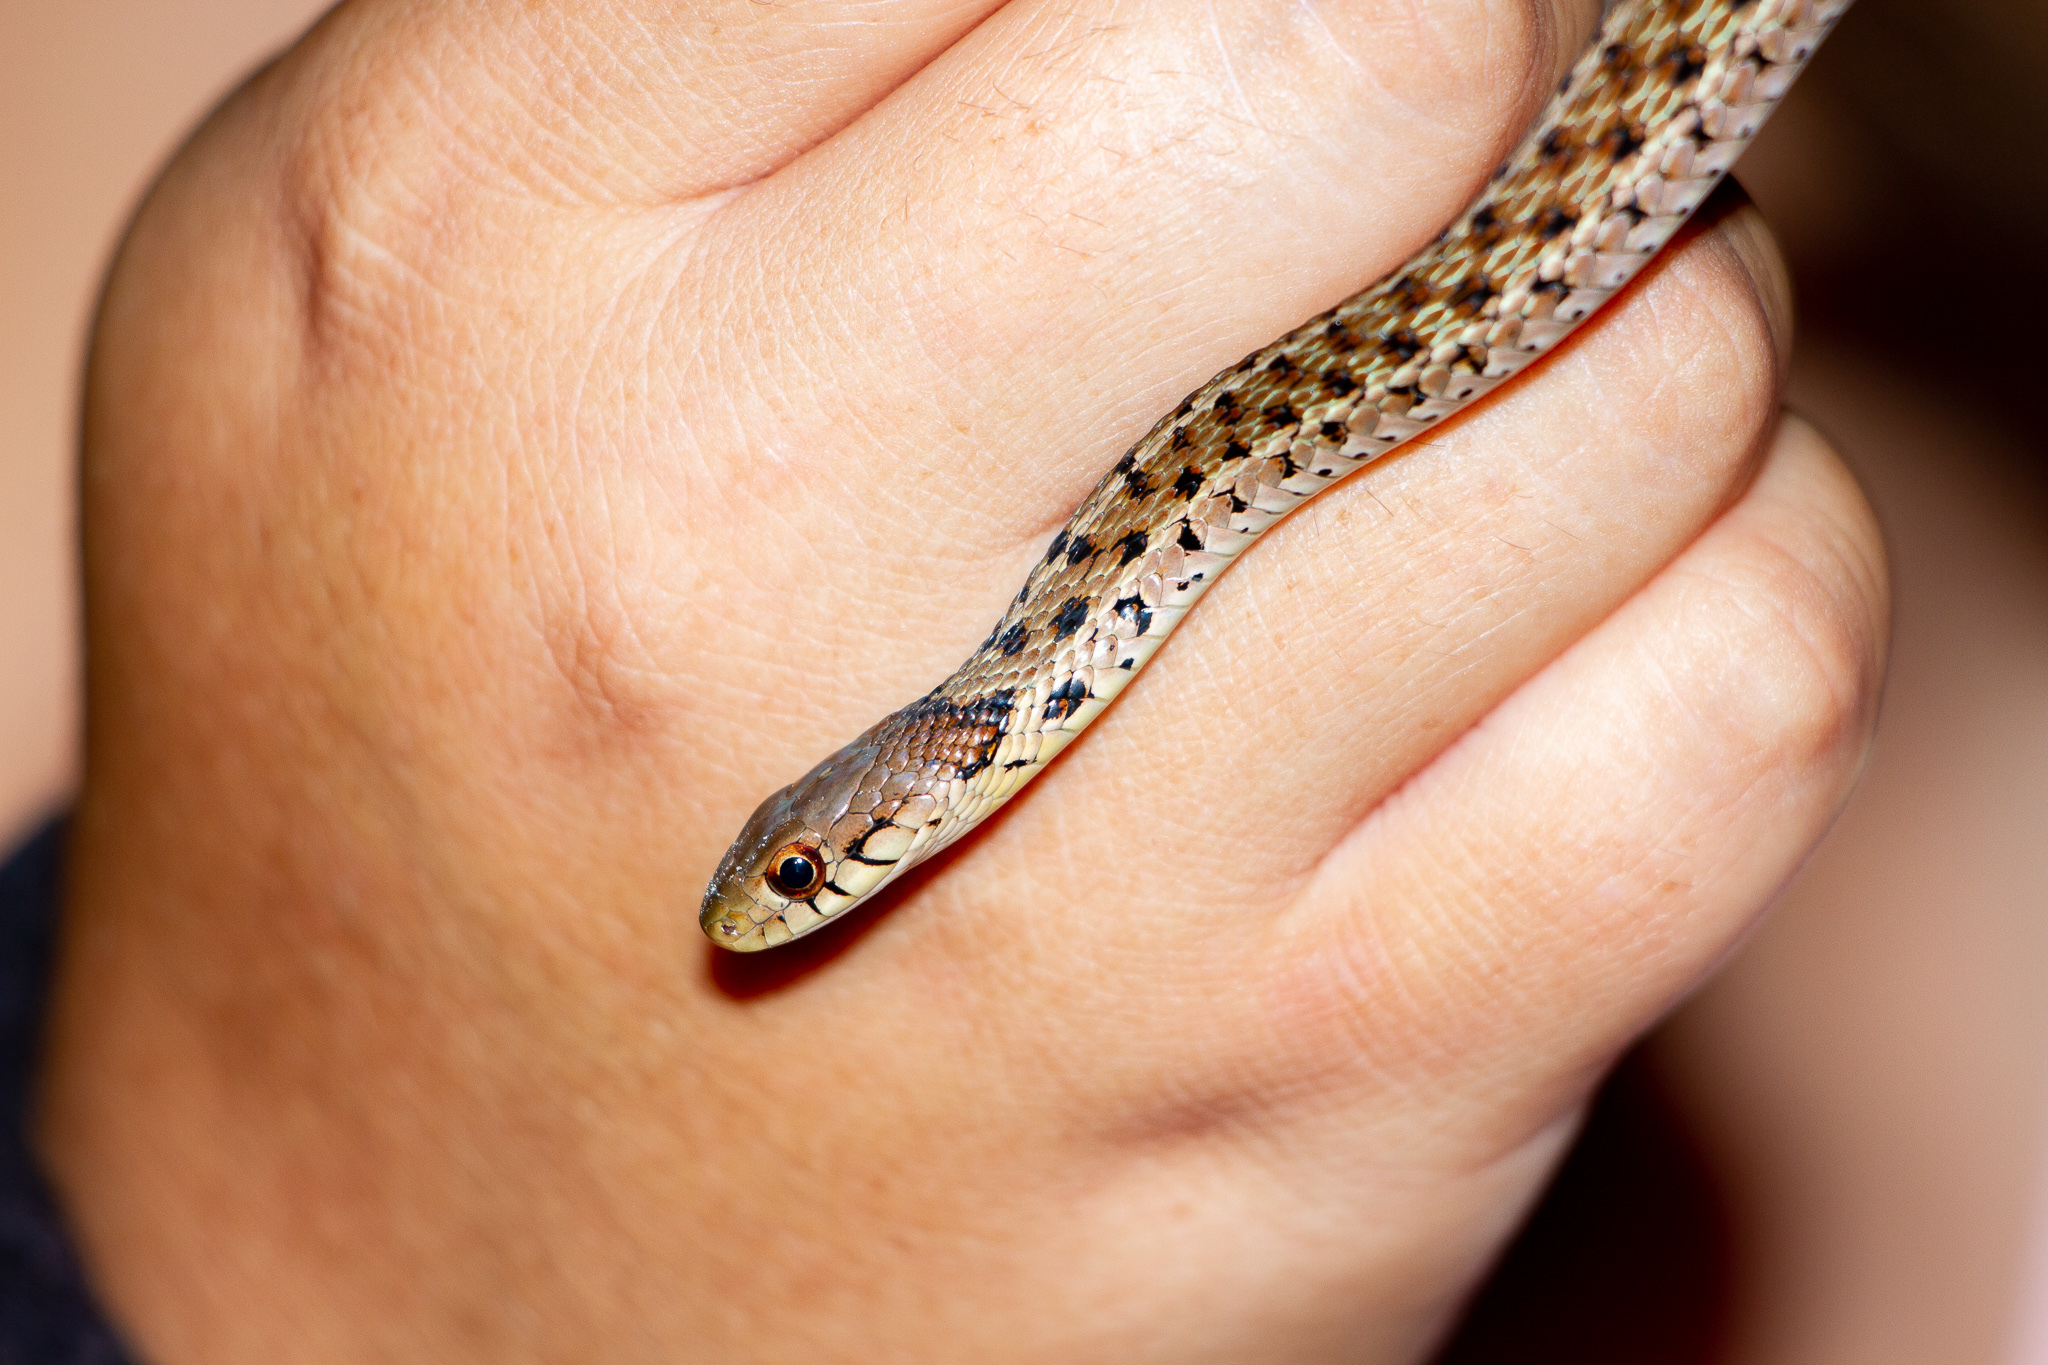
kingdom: Animalia
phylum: Chordata
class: Squamata
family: Colubridae
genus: Thamnophis
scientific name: Thamnophis sirtalis
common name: Common garter snake
